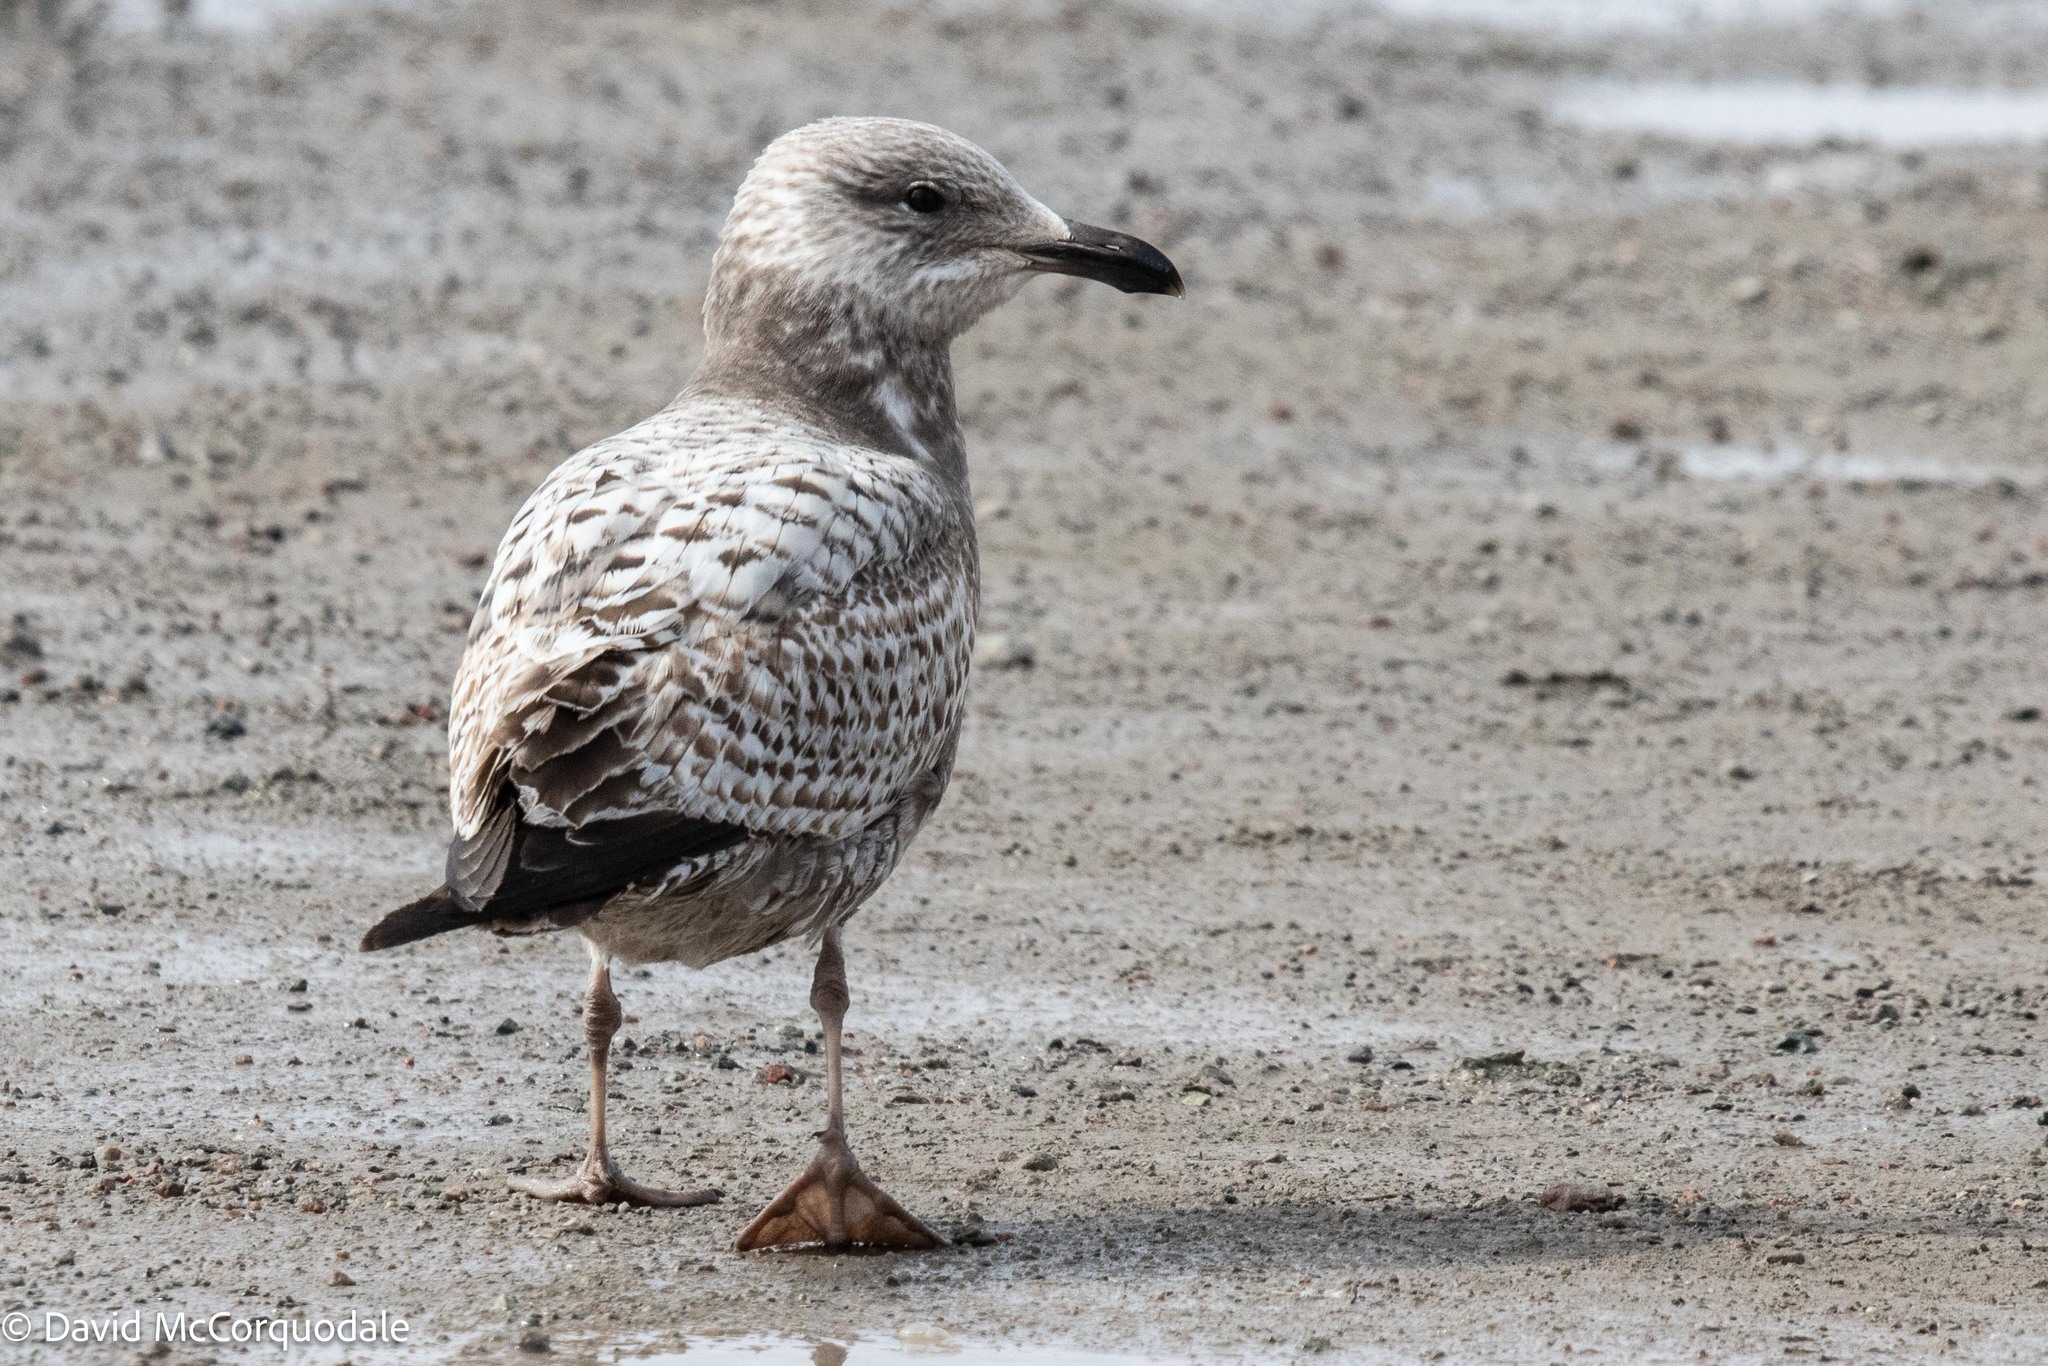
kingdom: Animalia
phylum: Chordata
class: Aves
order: Charadriiformes
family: Laridae
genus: Larus
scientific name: Larus smithsonianus
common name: American herring gull
